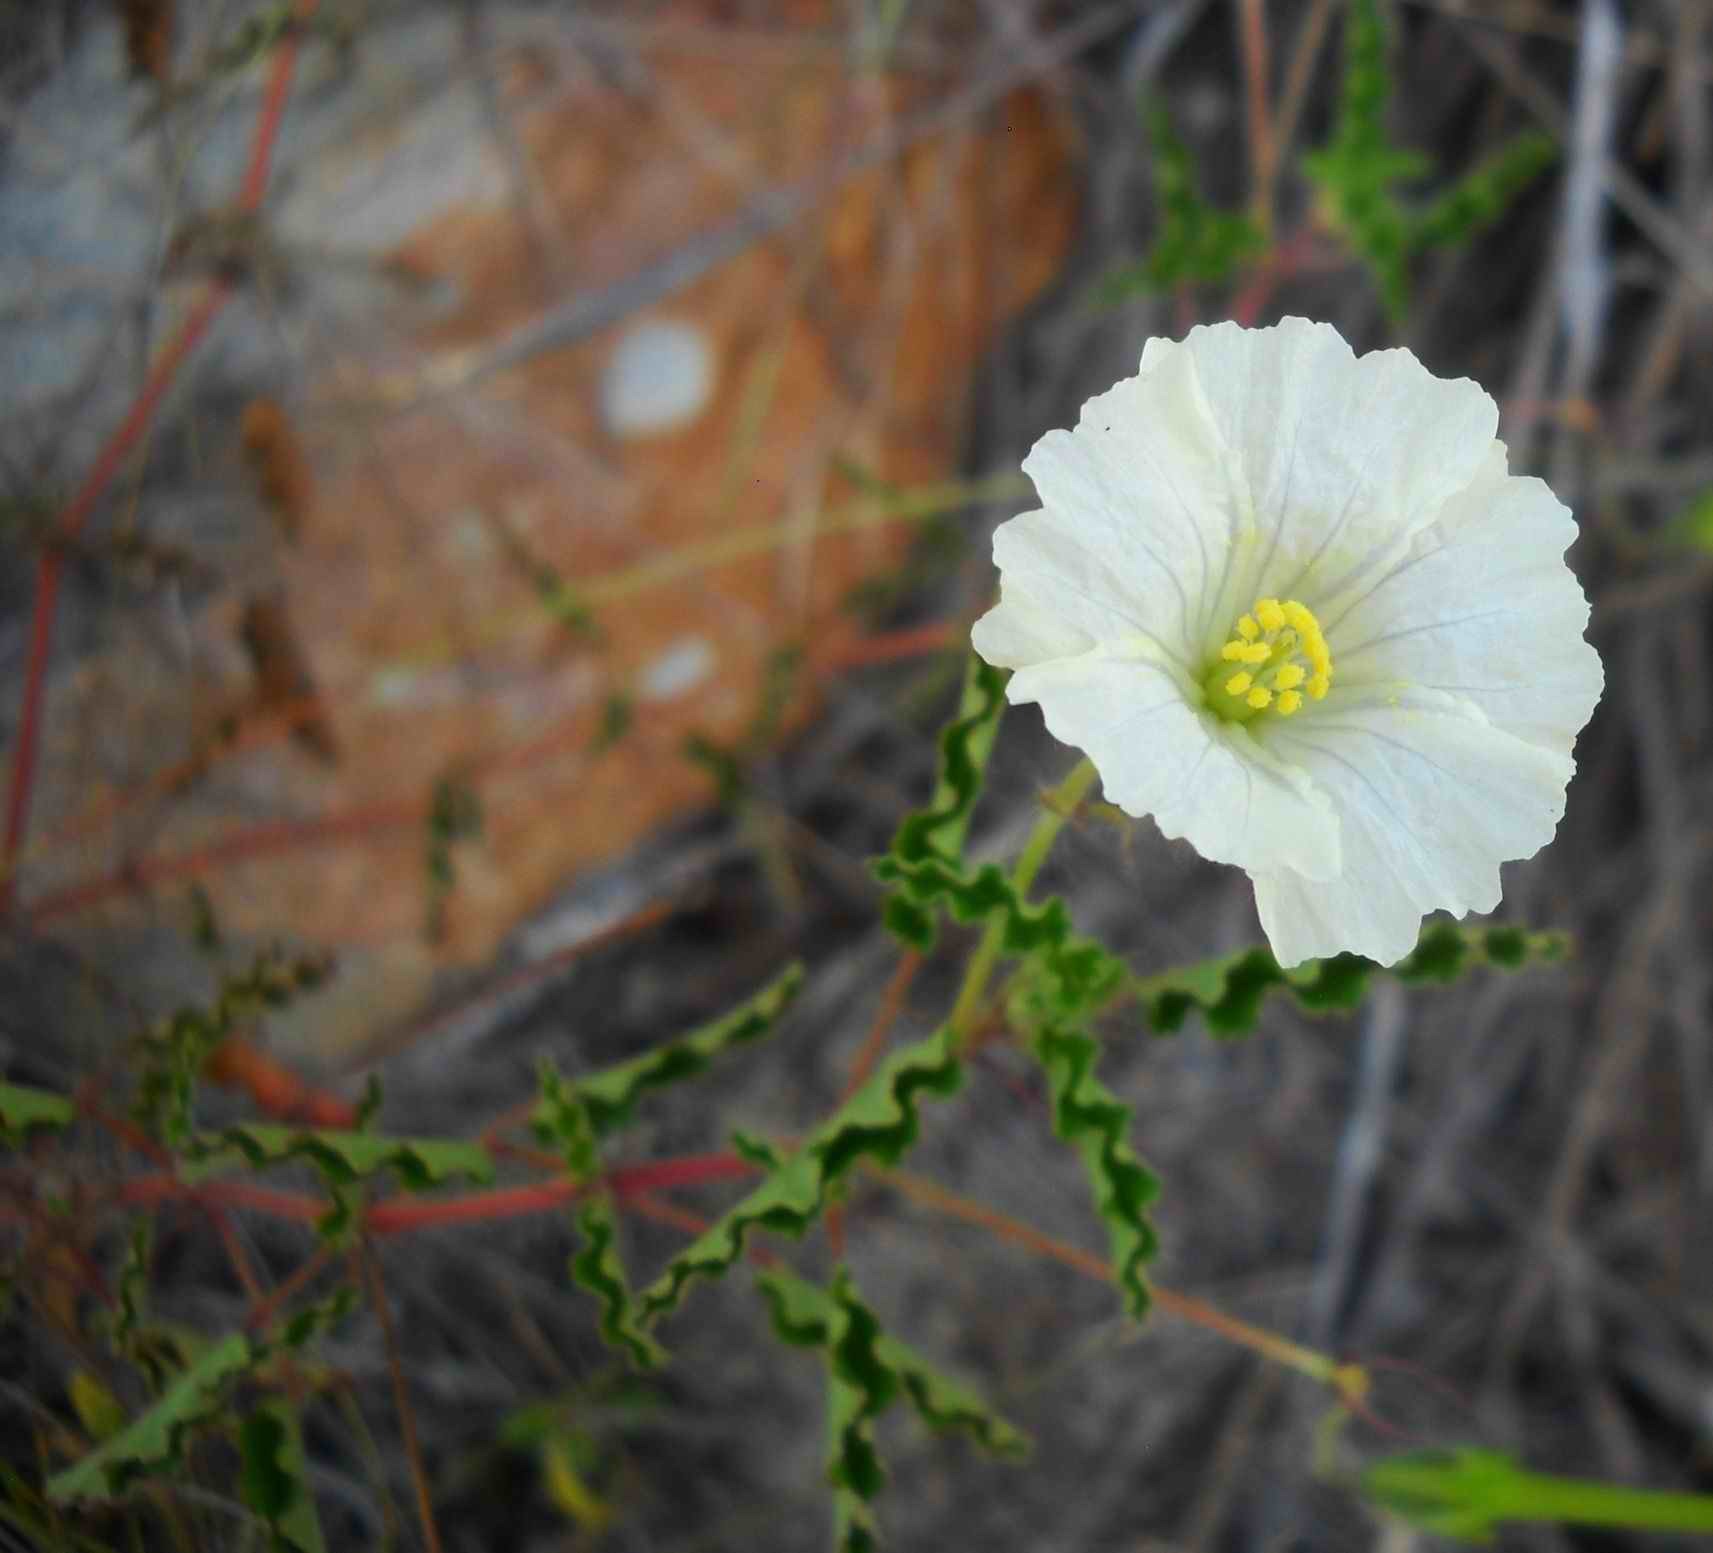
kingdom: Plantae
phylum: Tracheophyta
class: Magnoliopsida
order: Geraniales
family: Geraniaceae
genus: Monsonia
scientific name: Monsonia emarginata
